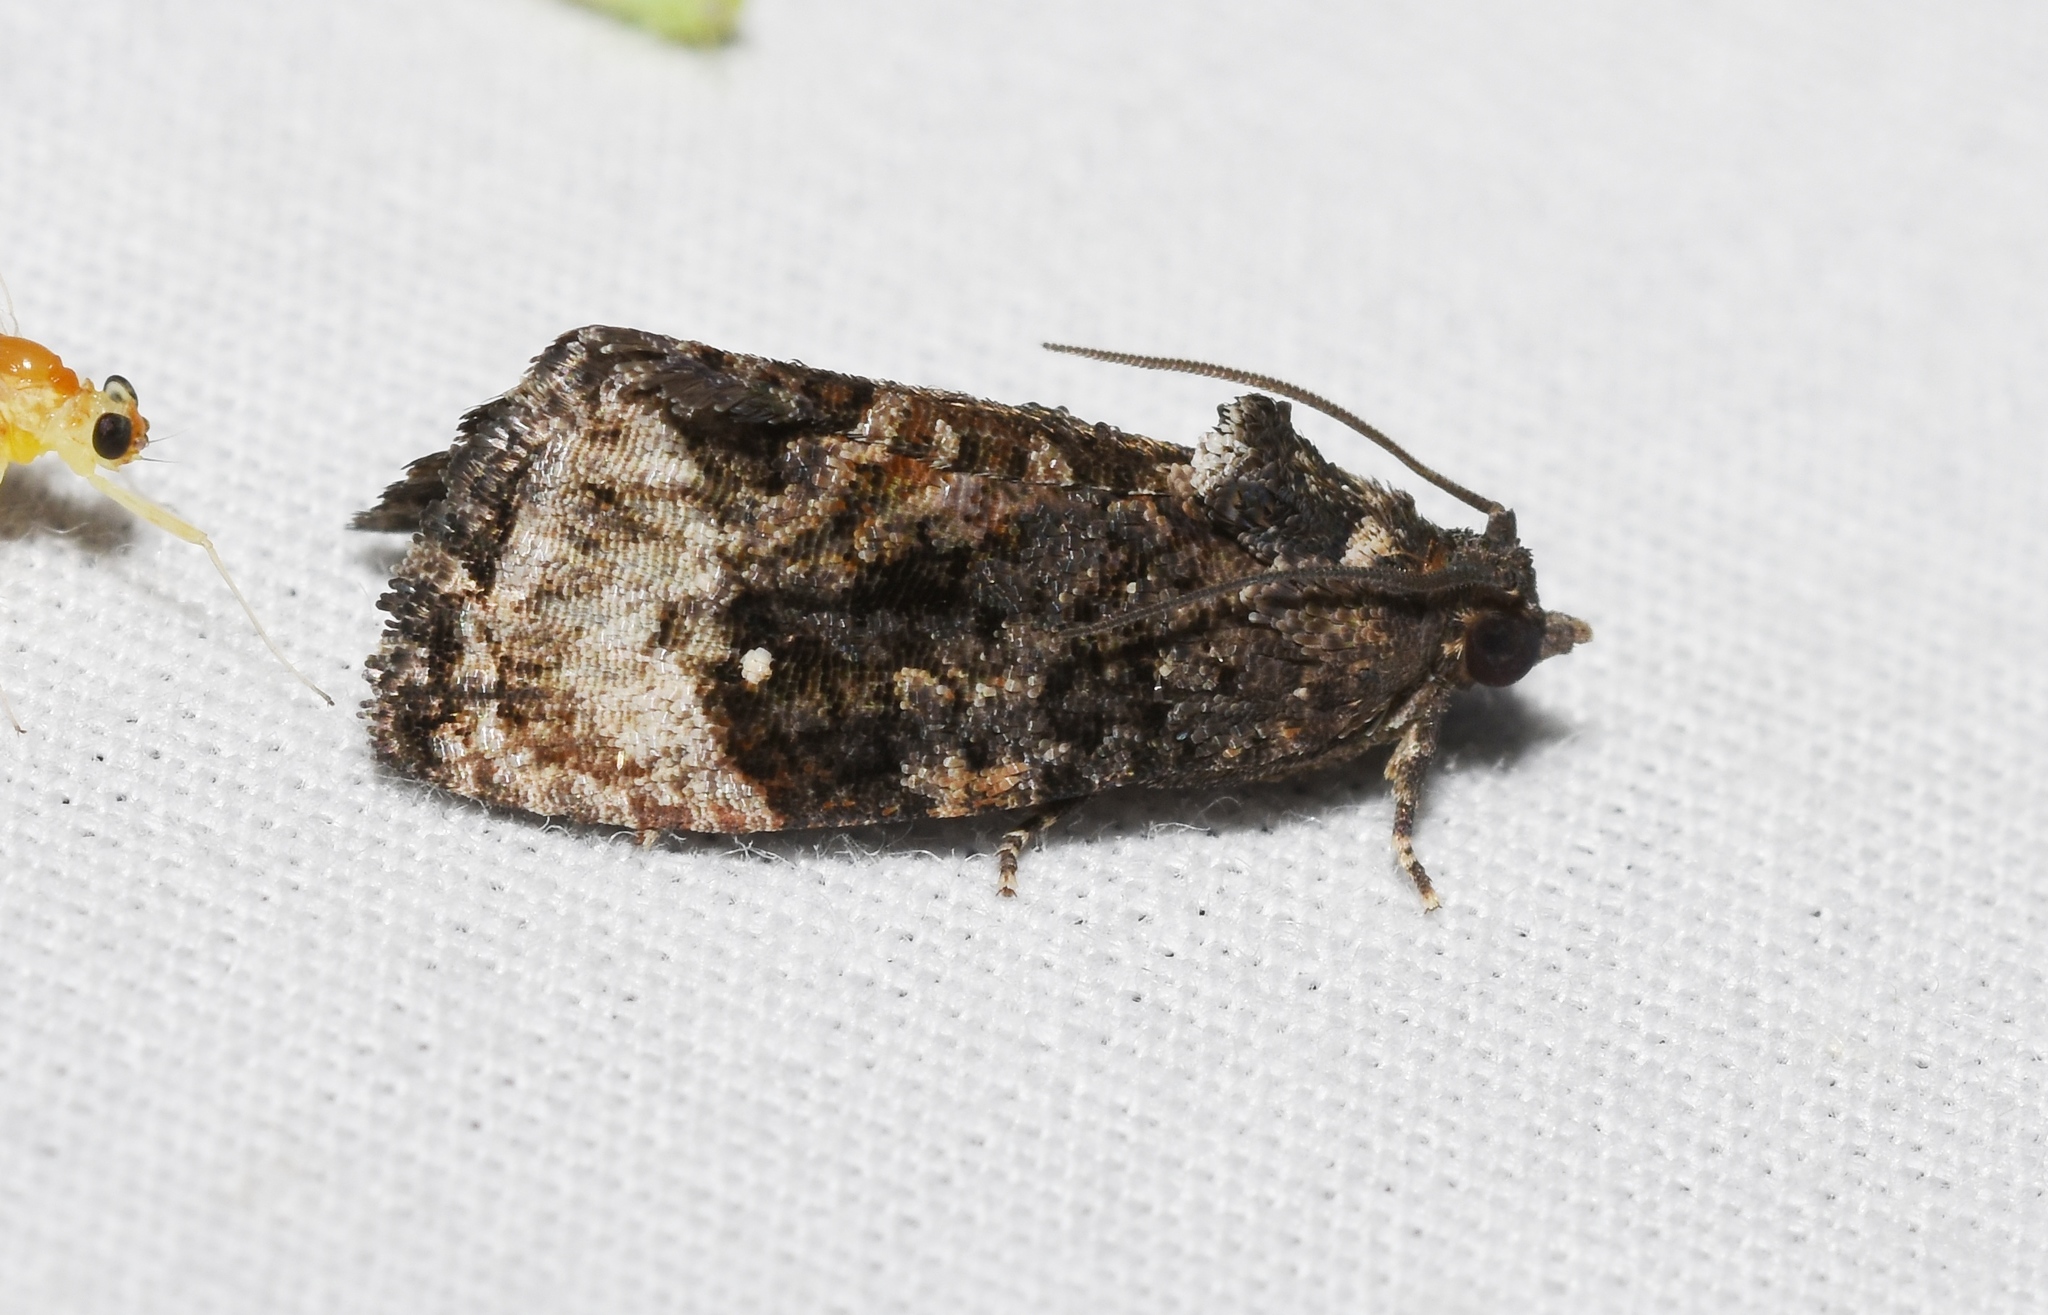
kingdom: Animalia
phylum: Arthropoda
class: Insecta
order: Lepidoptera
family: Tortricidae
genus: Gymnandrosoma
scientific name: Gymnandrosoma punctidiscanum
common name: Dotted ecdytolopha moth
